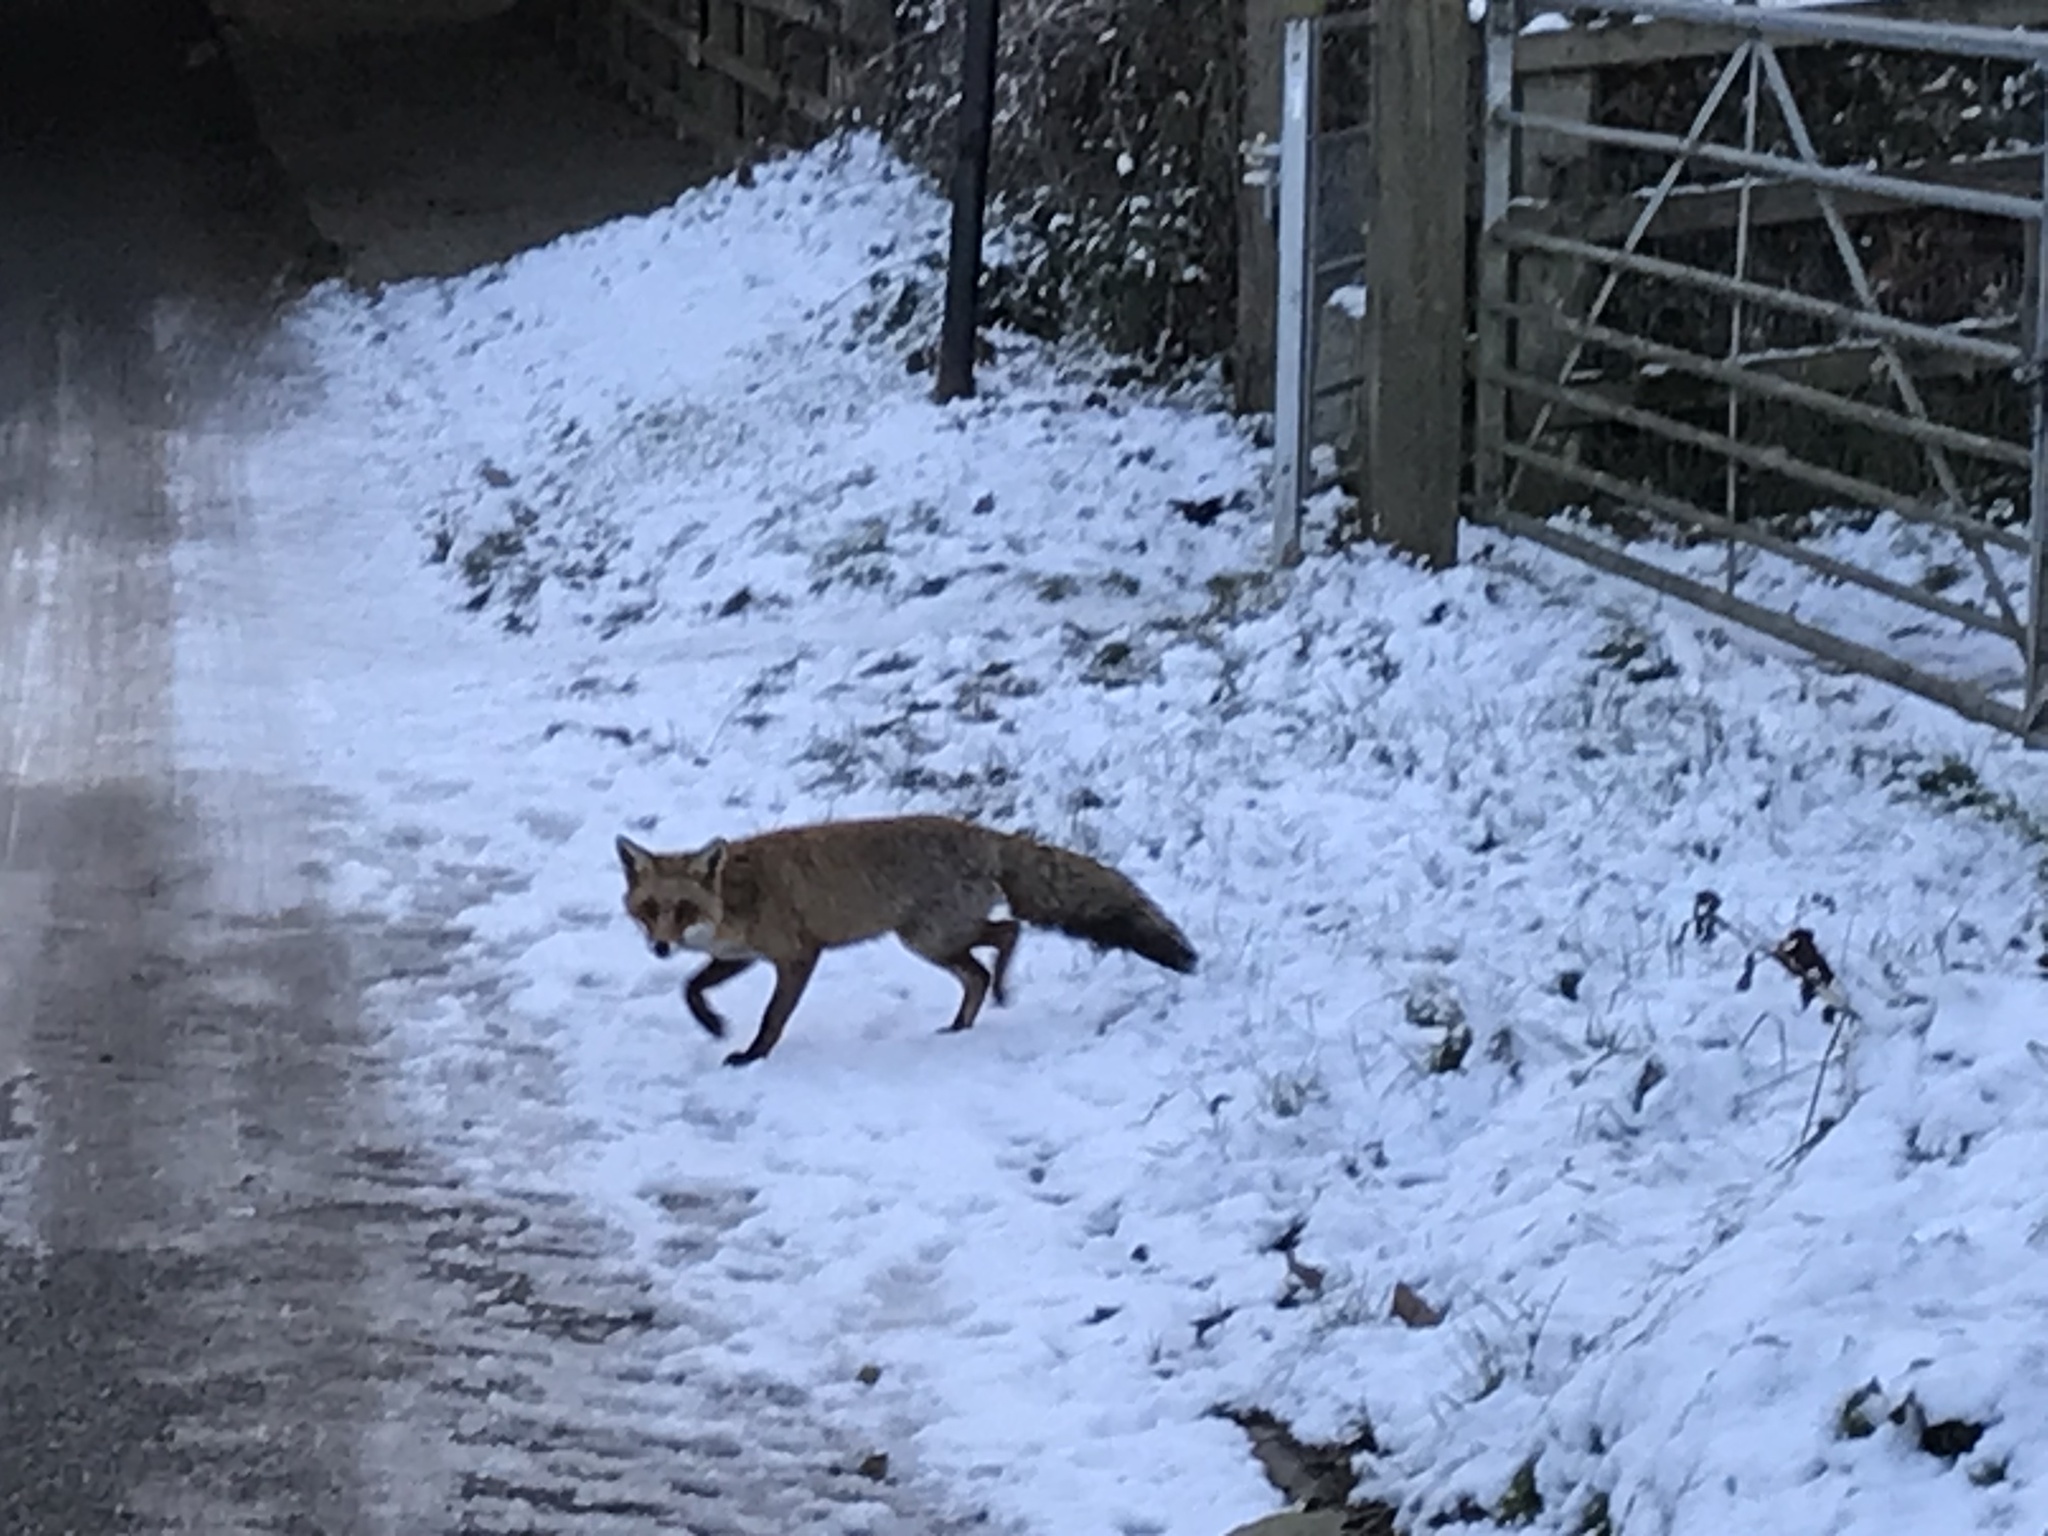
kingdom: Animalia
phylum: Chordata
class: Mammalia
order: Carnivora
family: Canidae
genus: Vulpes
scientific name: Vulpes vulpes
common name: Red fox
